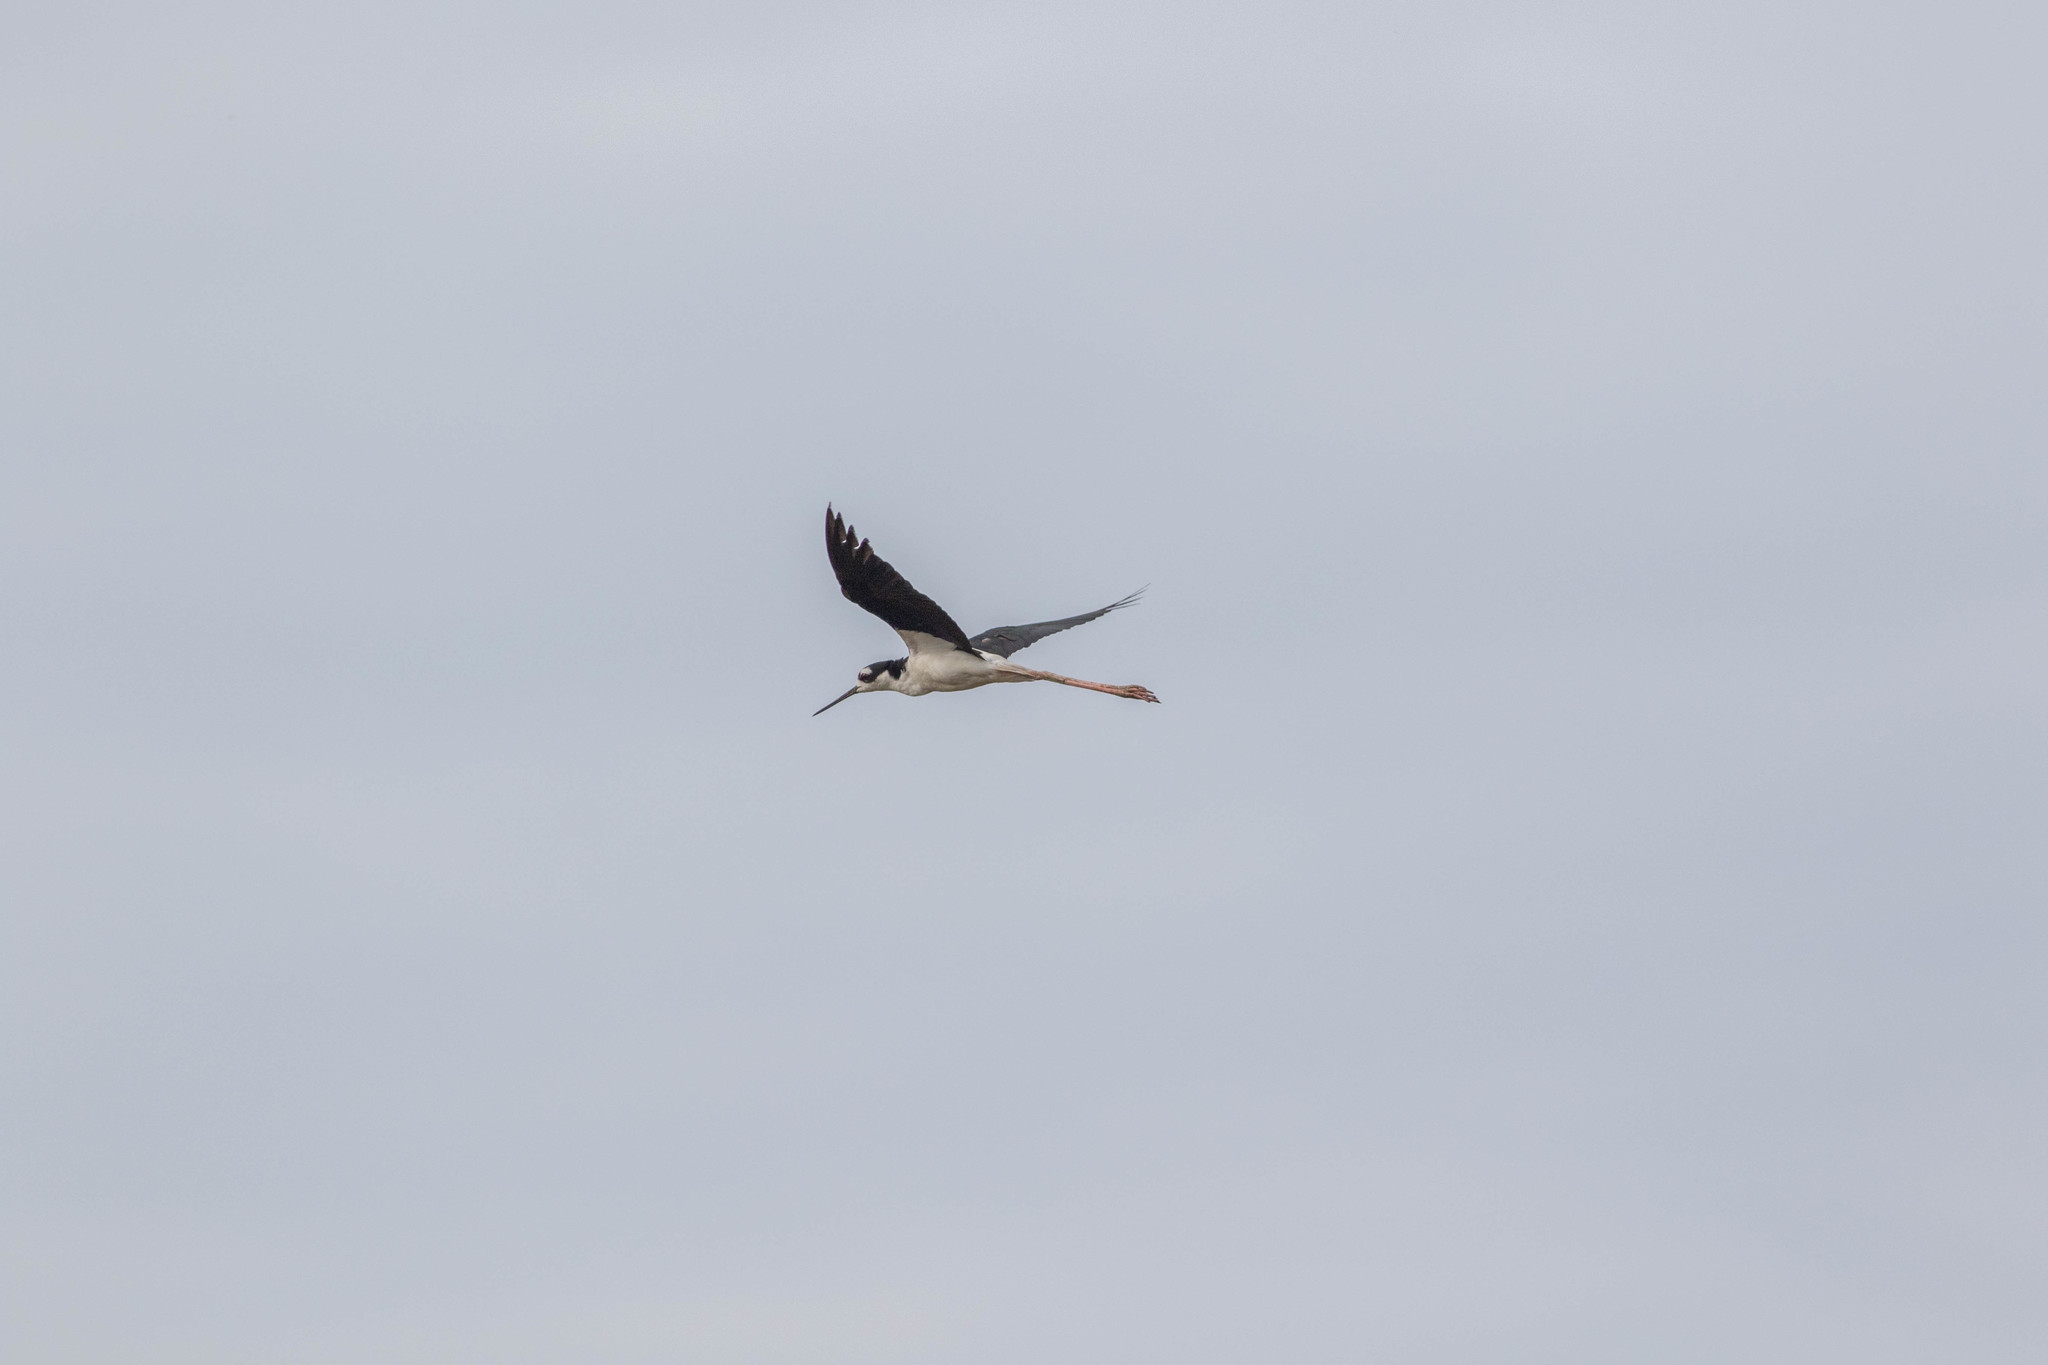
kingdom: Animalia
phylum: Chordata
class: Aves
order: Charadriiformes
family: Recurvirostridae
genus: Himantopus
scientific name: Himantopus mexicanus
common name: Black-necked stilt
